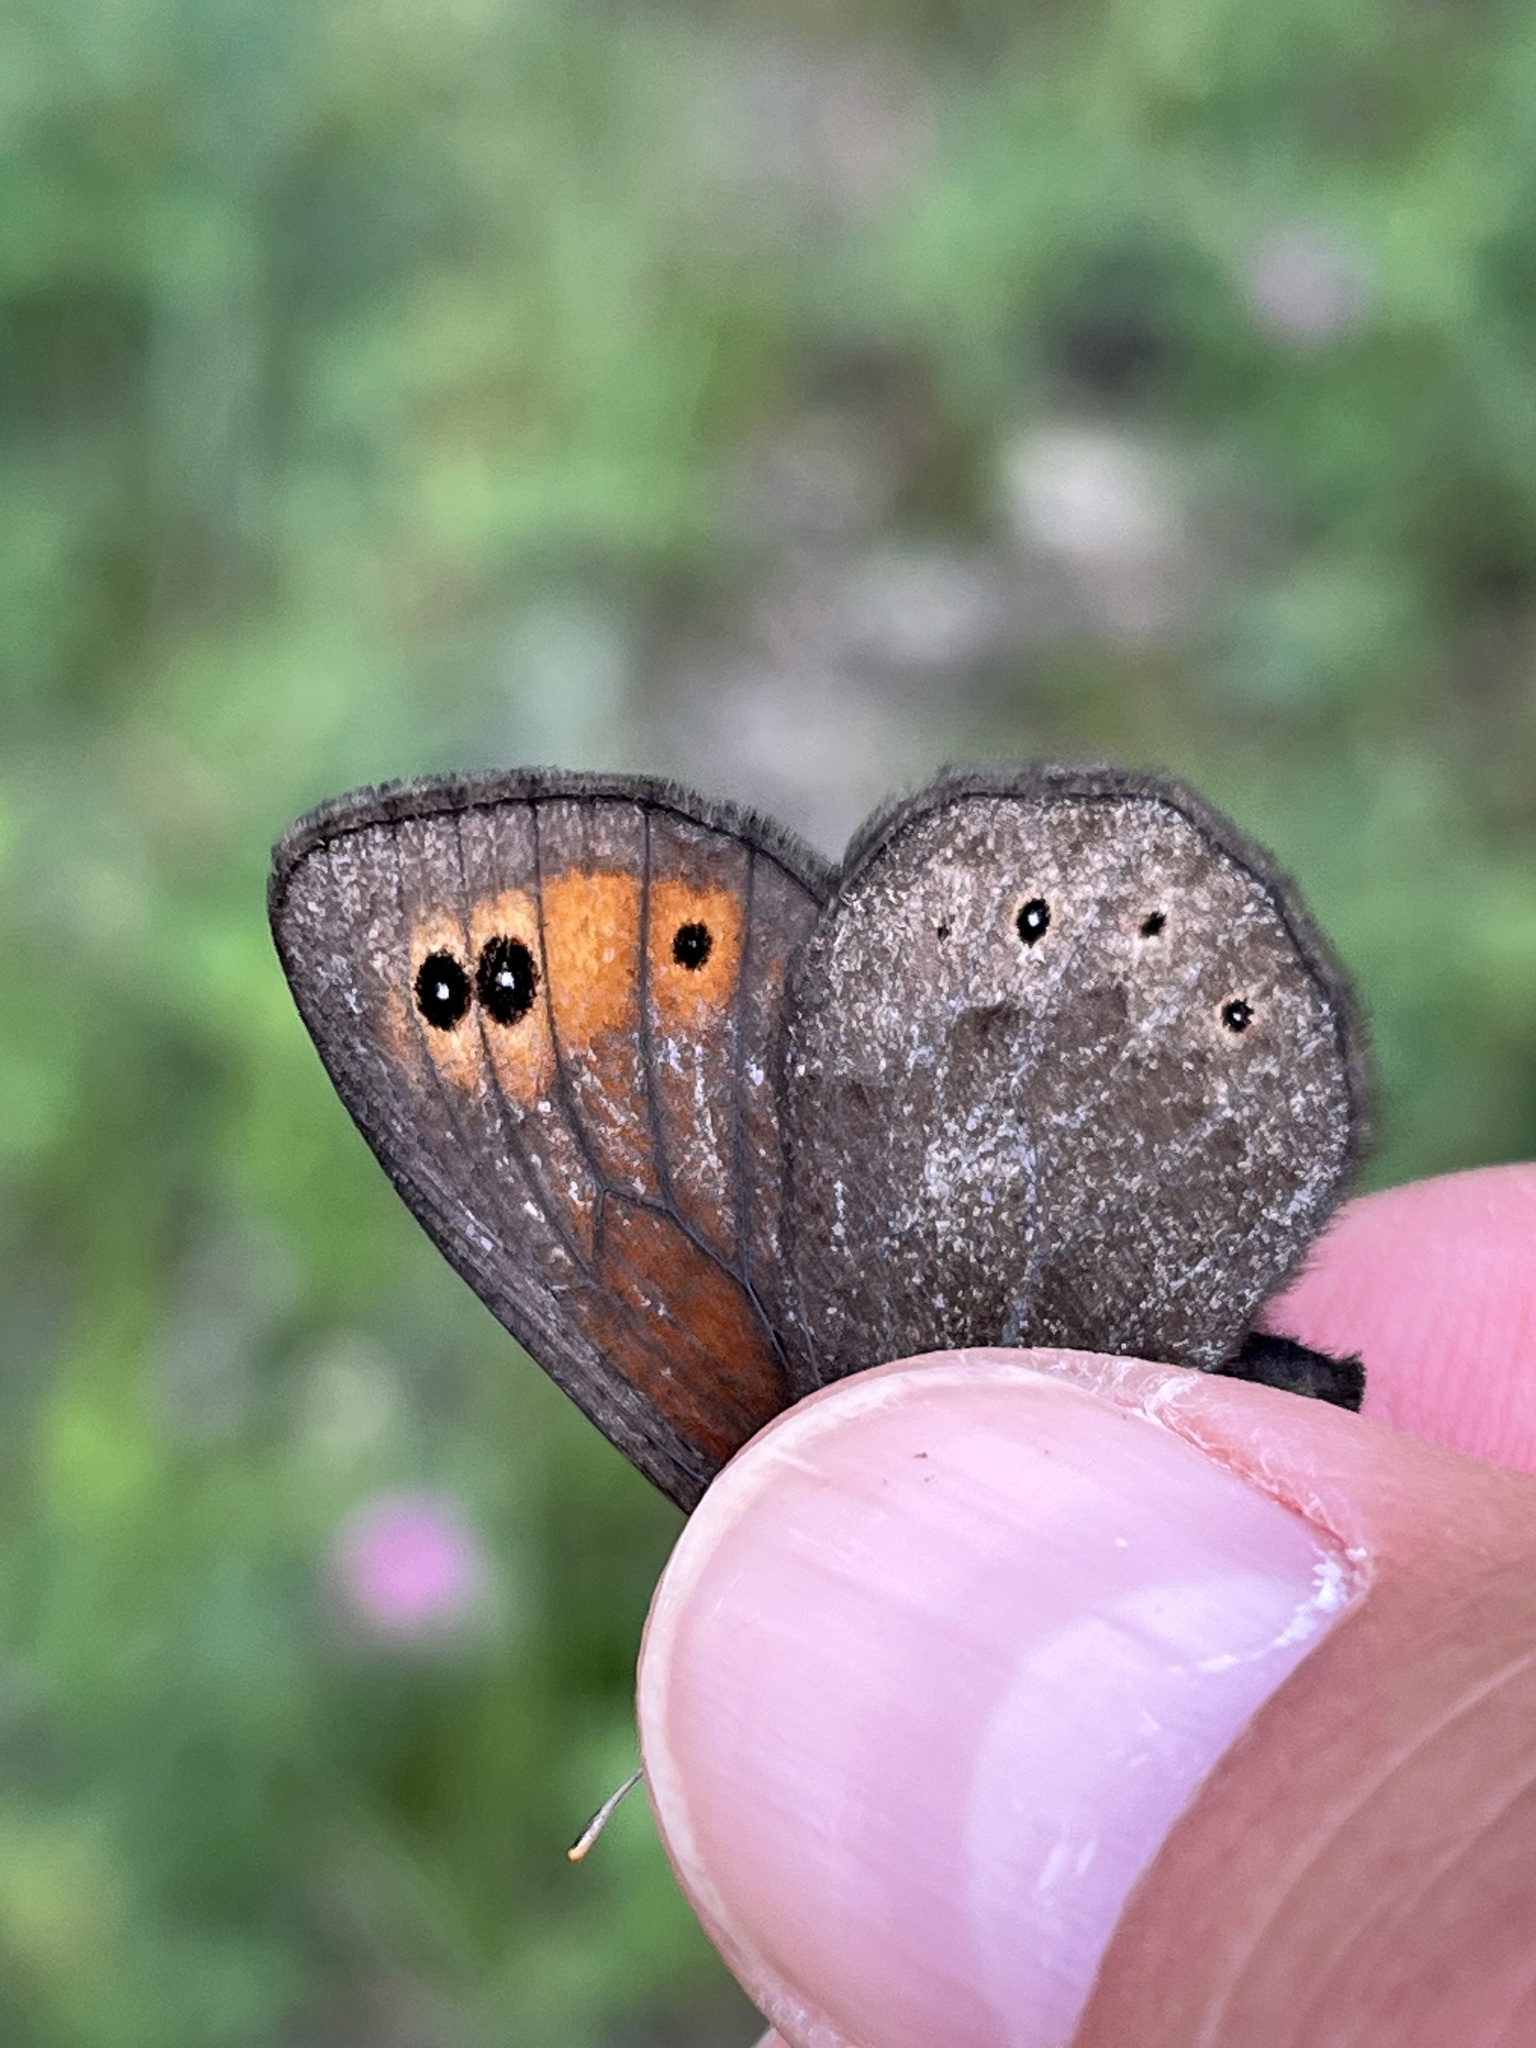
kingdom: Animalia
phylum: Arthropoda
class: Insecta
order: Lepidoptera
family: Nymphalidae
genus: Erebia
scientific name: Erebia epipsodea
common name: Common alpine
